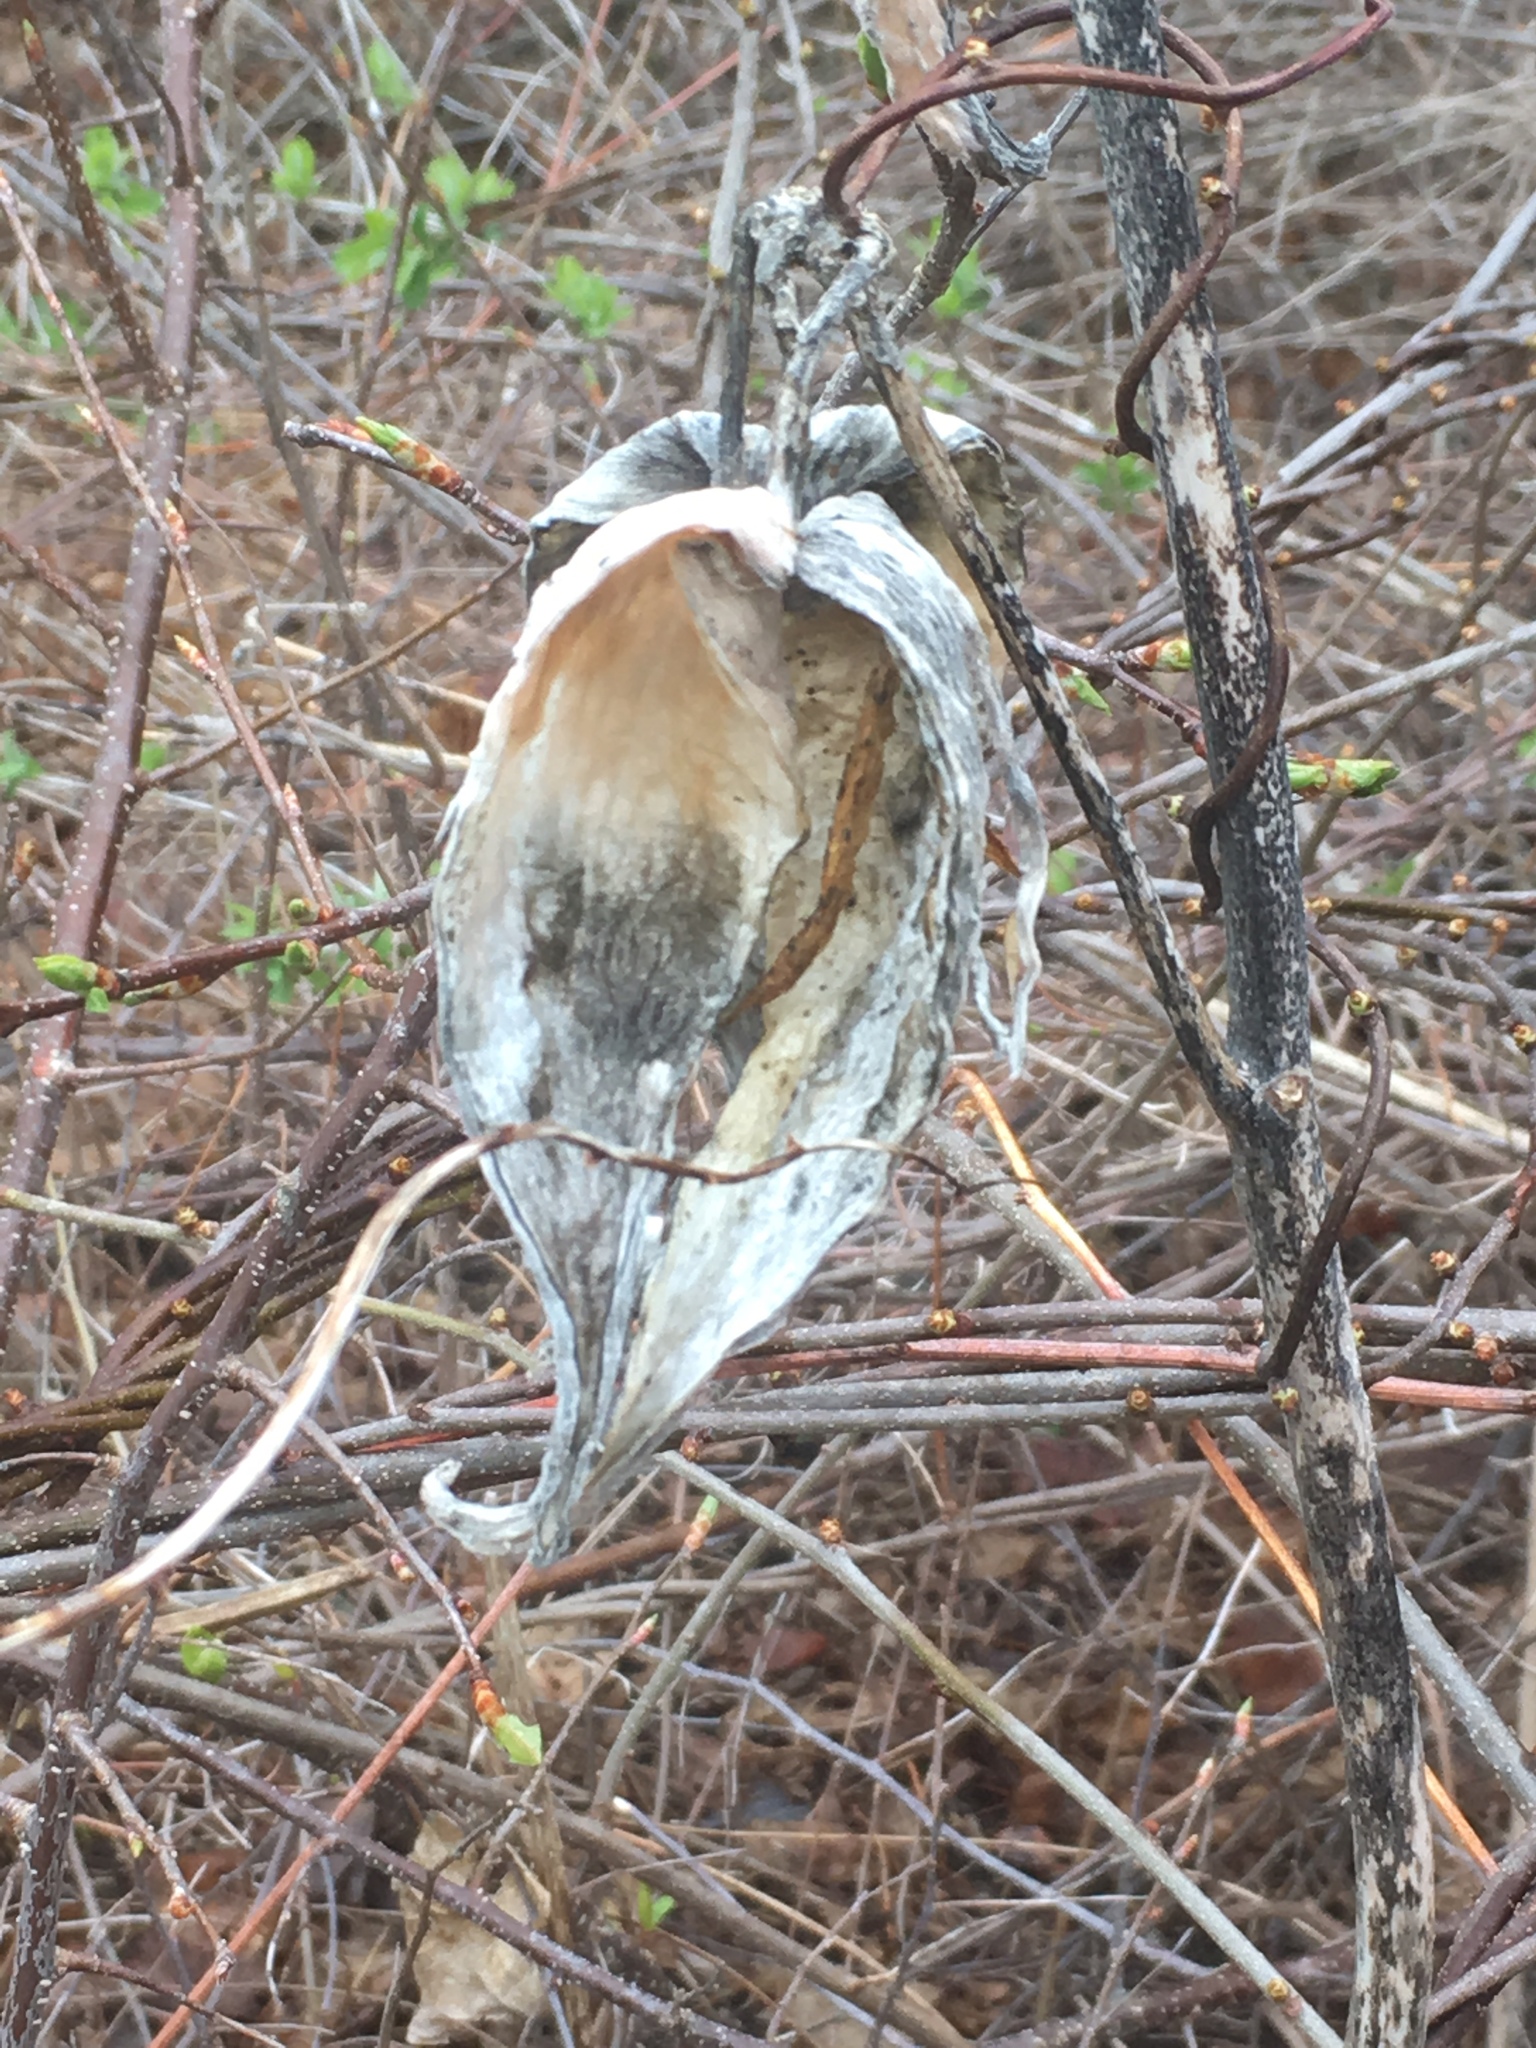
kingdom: Plantae
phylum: Tracheophyta
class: Magnoliopsida
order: Gentianales
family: Apocynaceae
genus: Asclepias
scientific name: Asclepias syriaca
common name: Common milkweed
